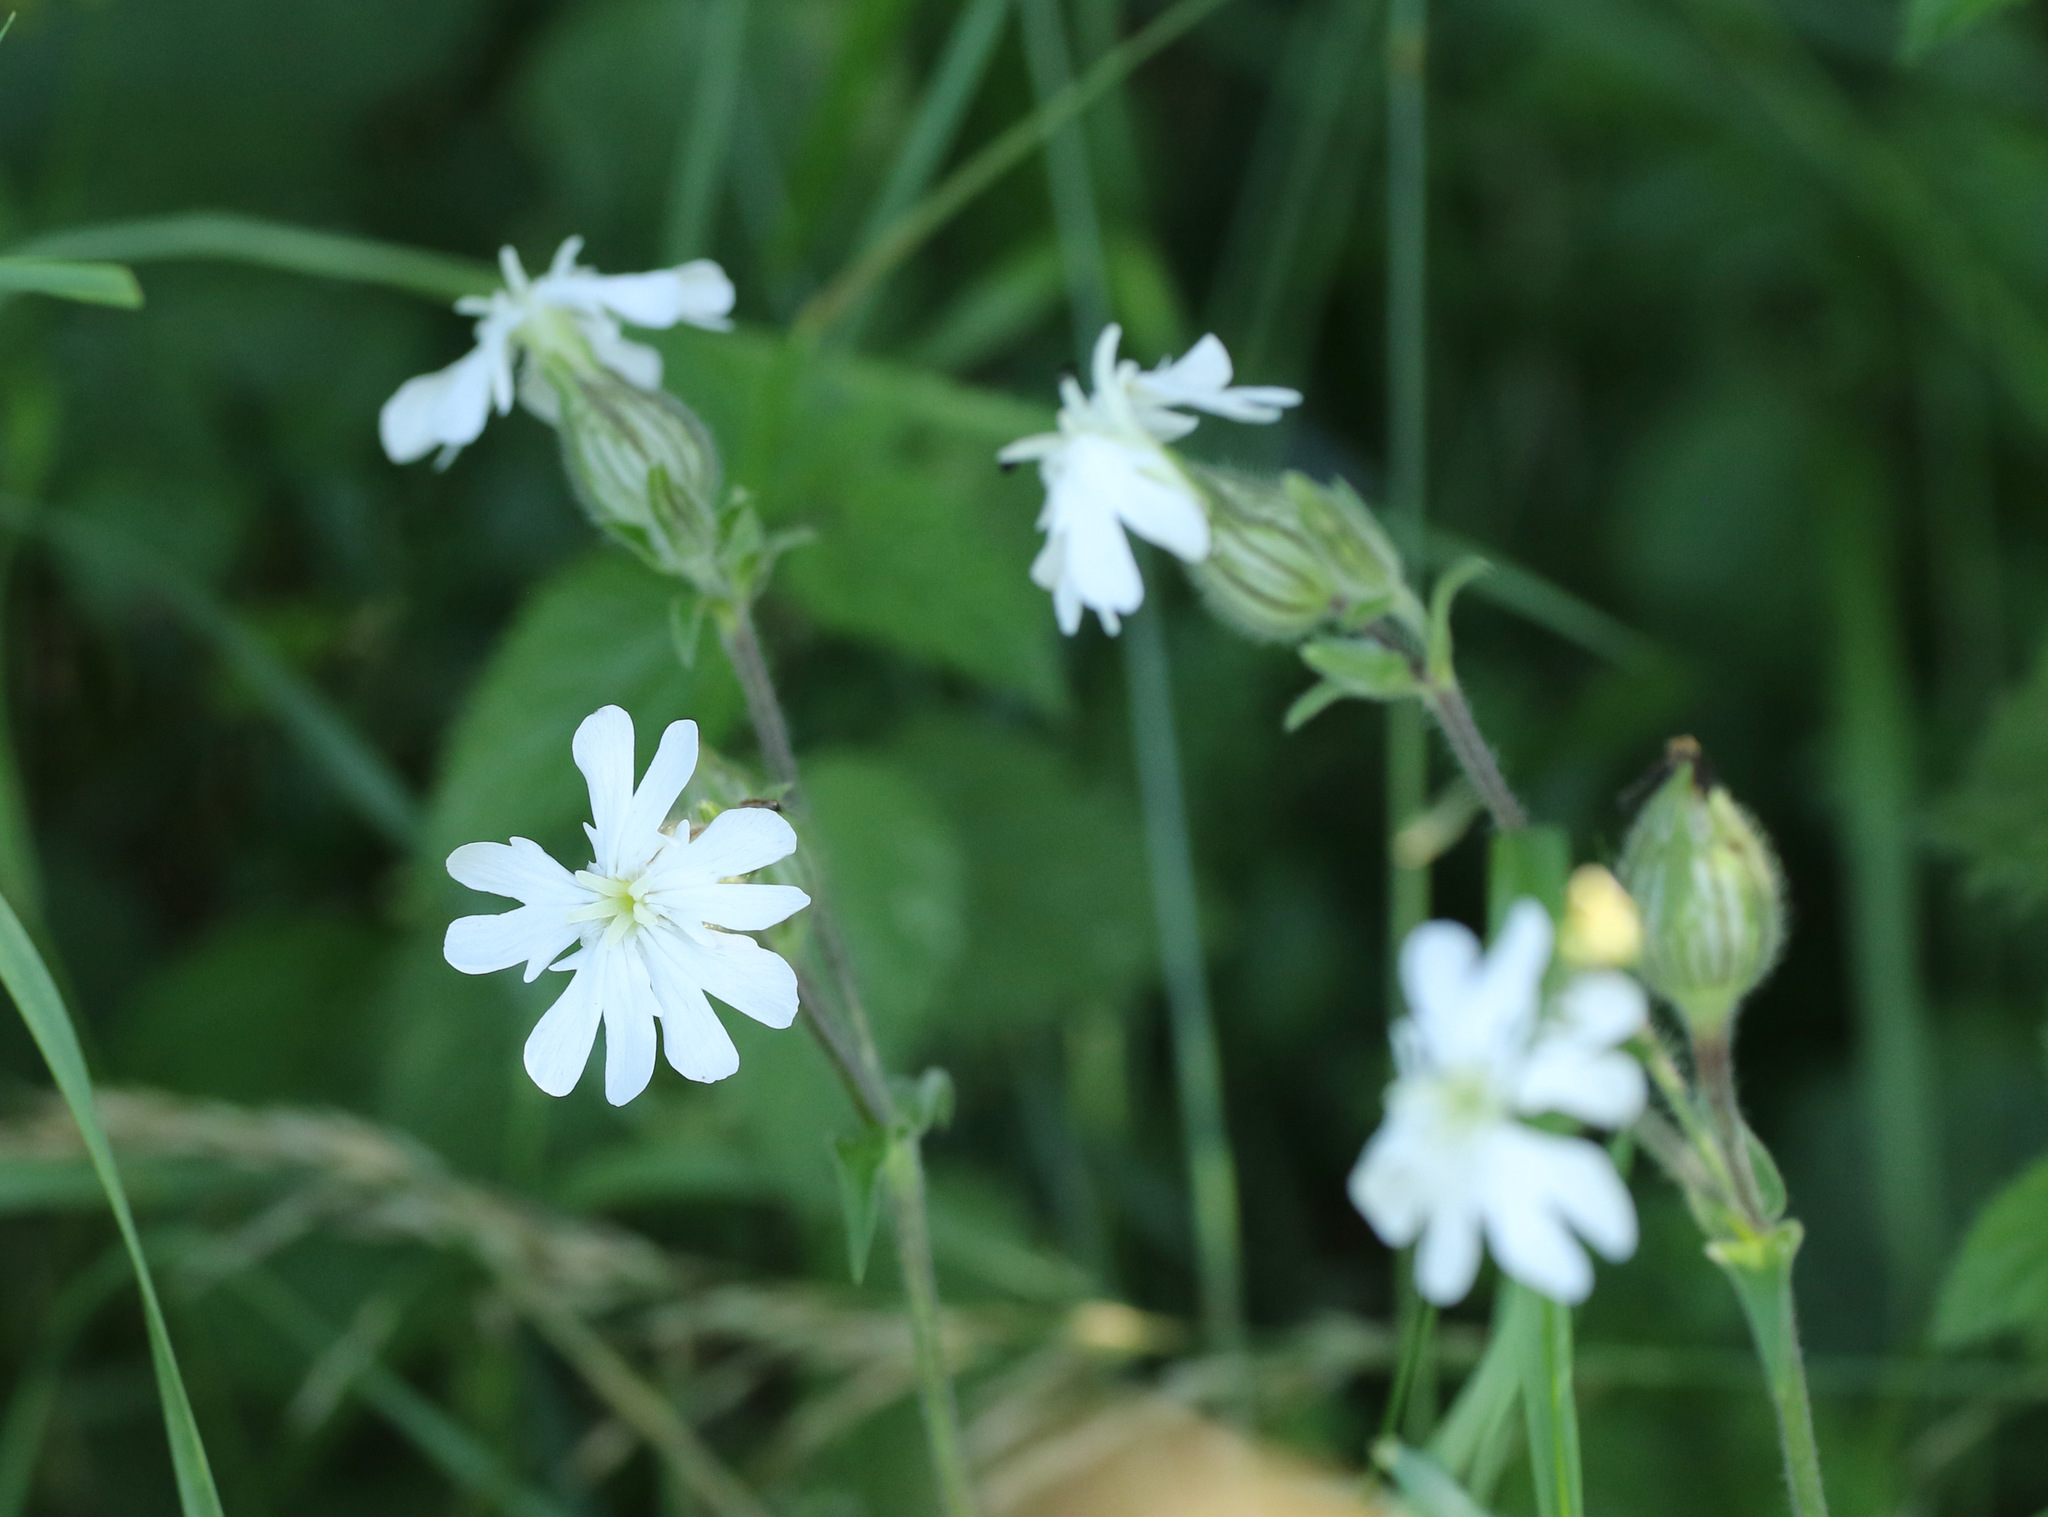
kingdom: Plantae
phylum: Tracheophyta
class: Magnoliopsida
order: Caryophyllales
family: Caryophyllaceae
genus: Silene
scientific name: Silene latifolia
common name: White campion
